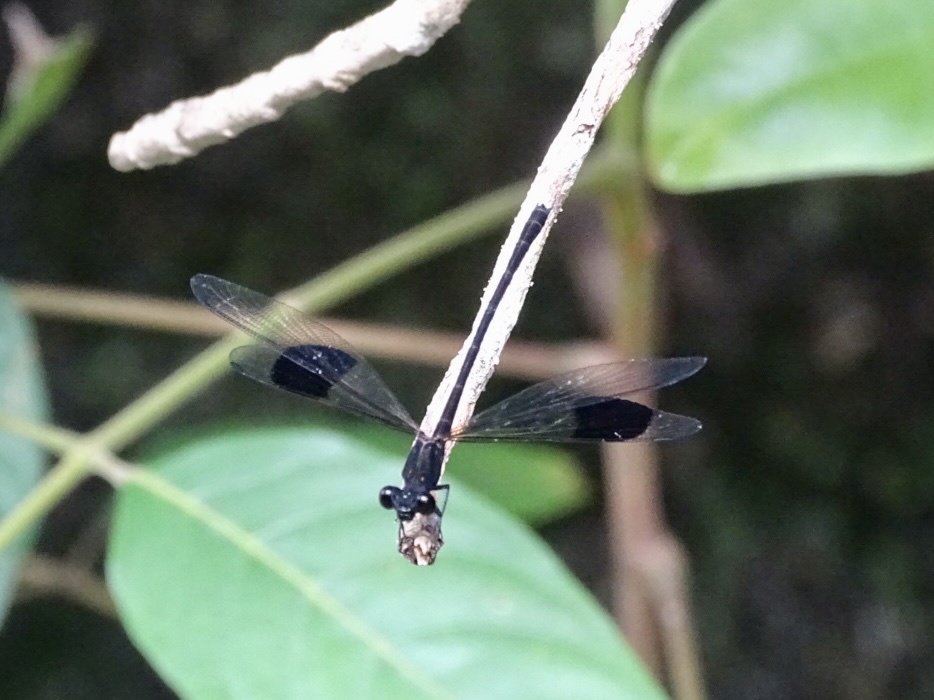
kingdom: Animalia
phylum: Arthropoda
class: Insecta
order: Odonata
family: Euphaeidae
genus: Euphaea
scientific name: Euphaea decorata
